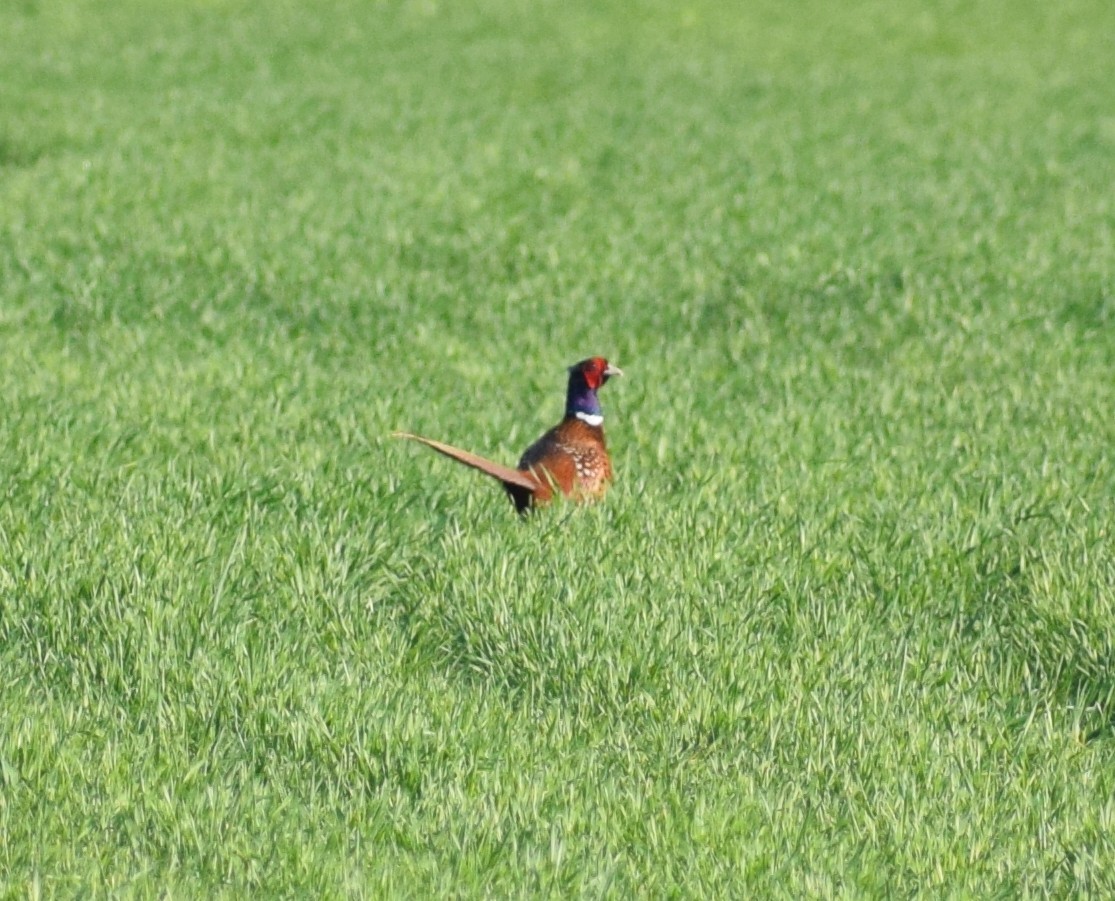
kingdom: Animalia
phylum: Chordata
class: Aves
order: Galliformes
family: Phasianidae
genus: Phasianus
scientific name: Phasianus colchicus
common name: Common pheasant
